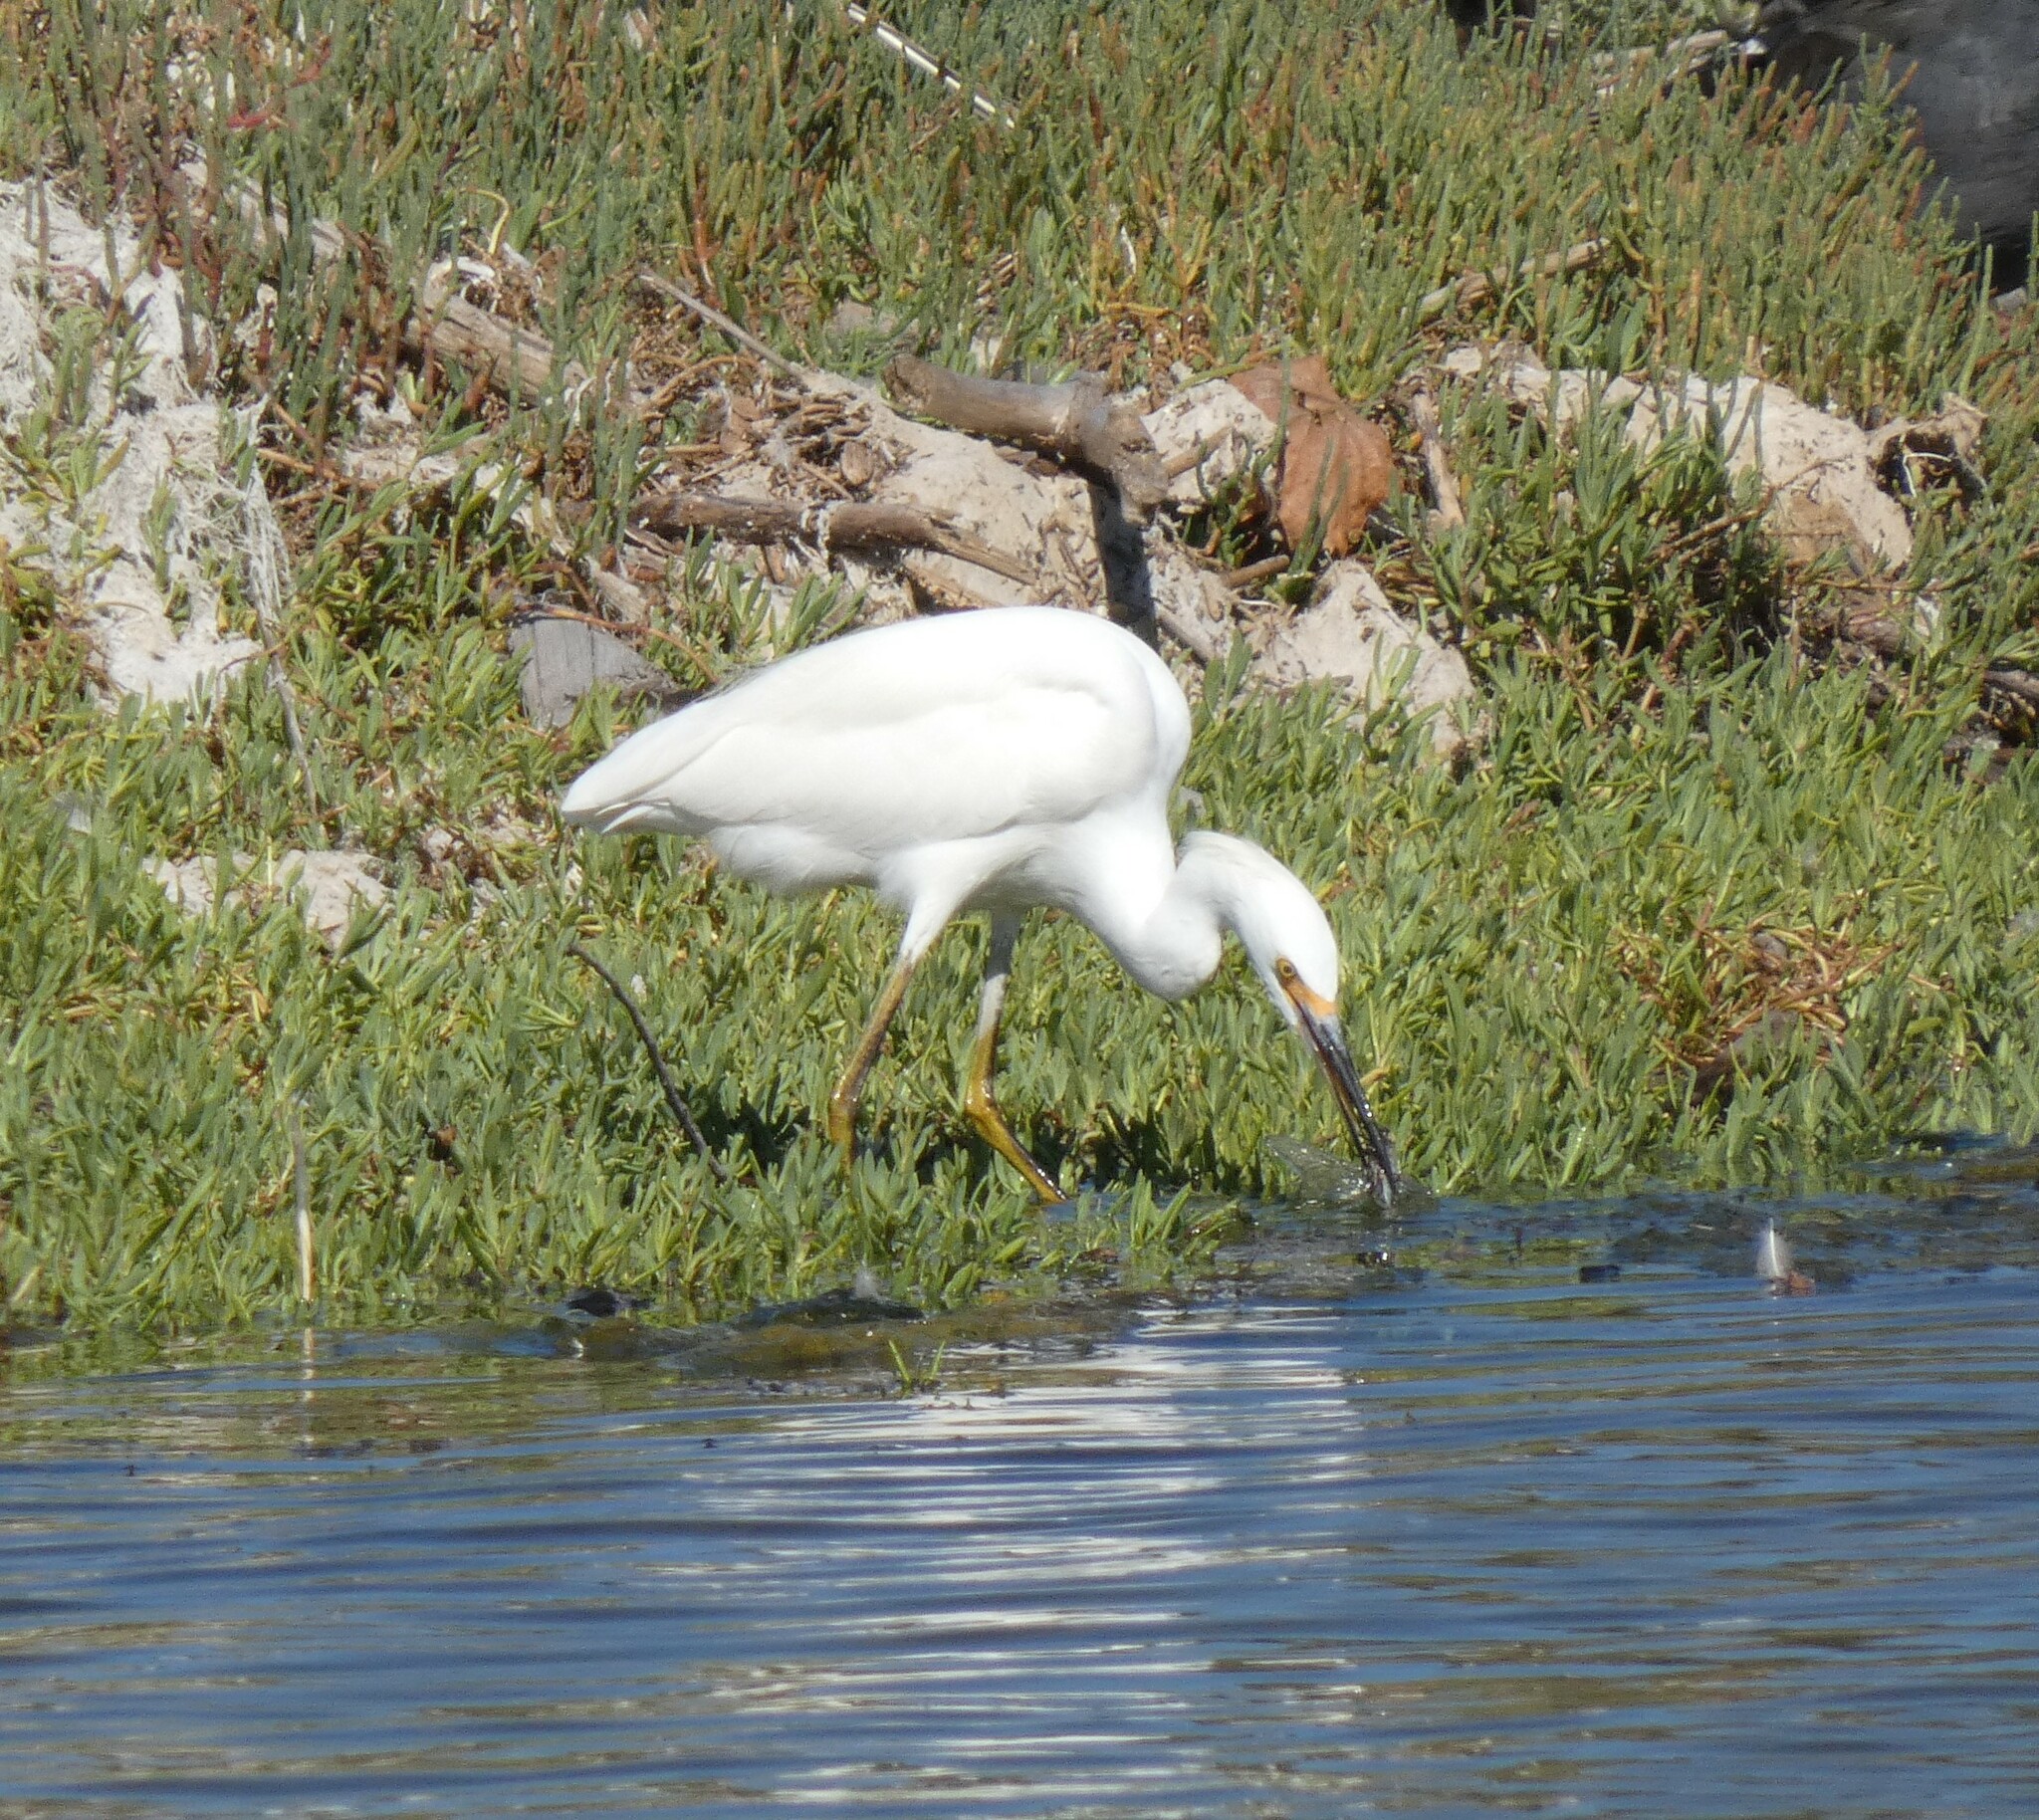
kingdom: Animalia
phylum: Chordata
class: Aves
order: Pelecaniformes
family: Ardeidae
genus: Egretta
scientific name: Egretta thula
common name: Snowy egret
